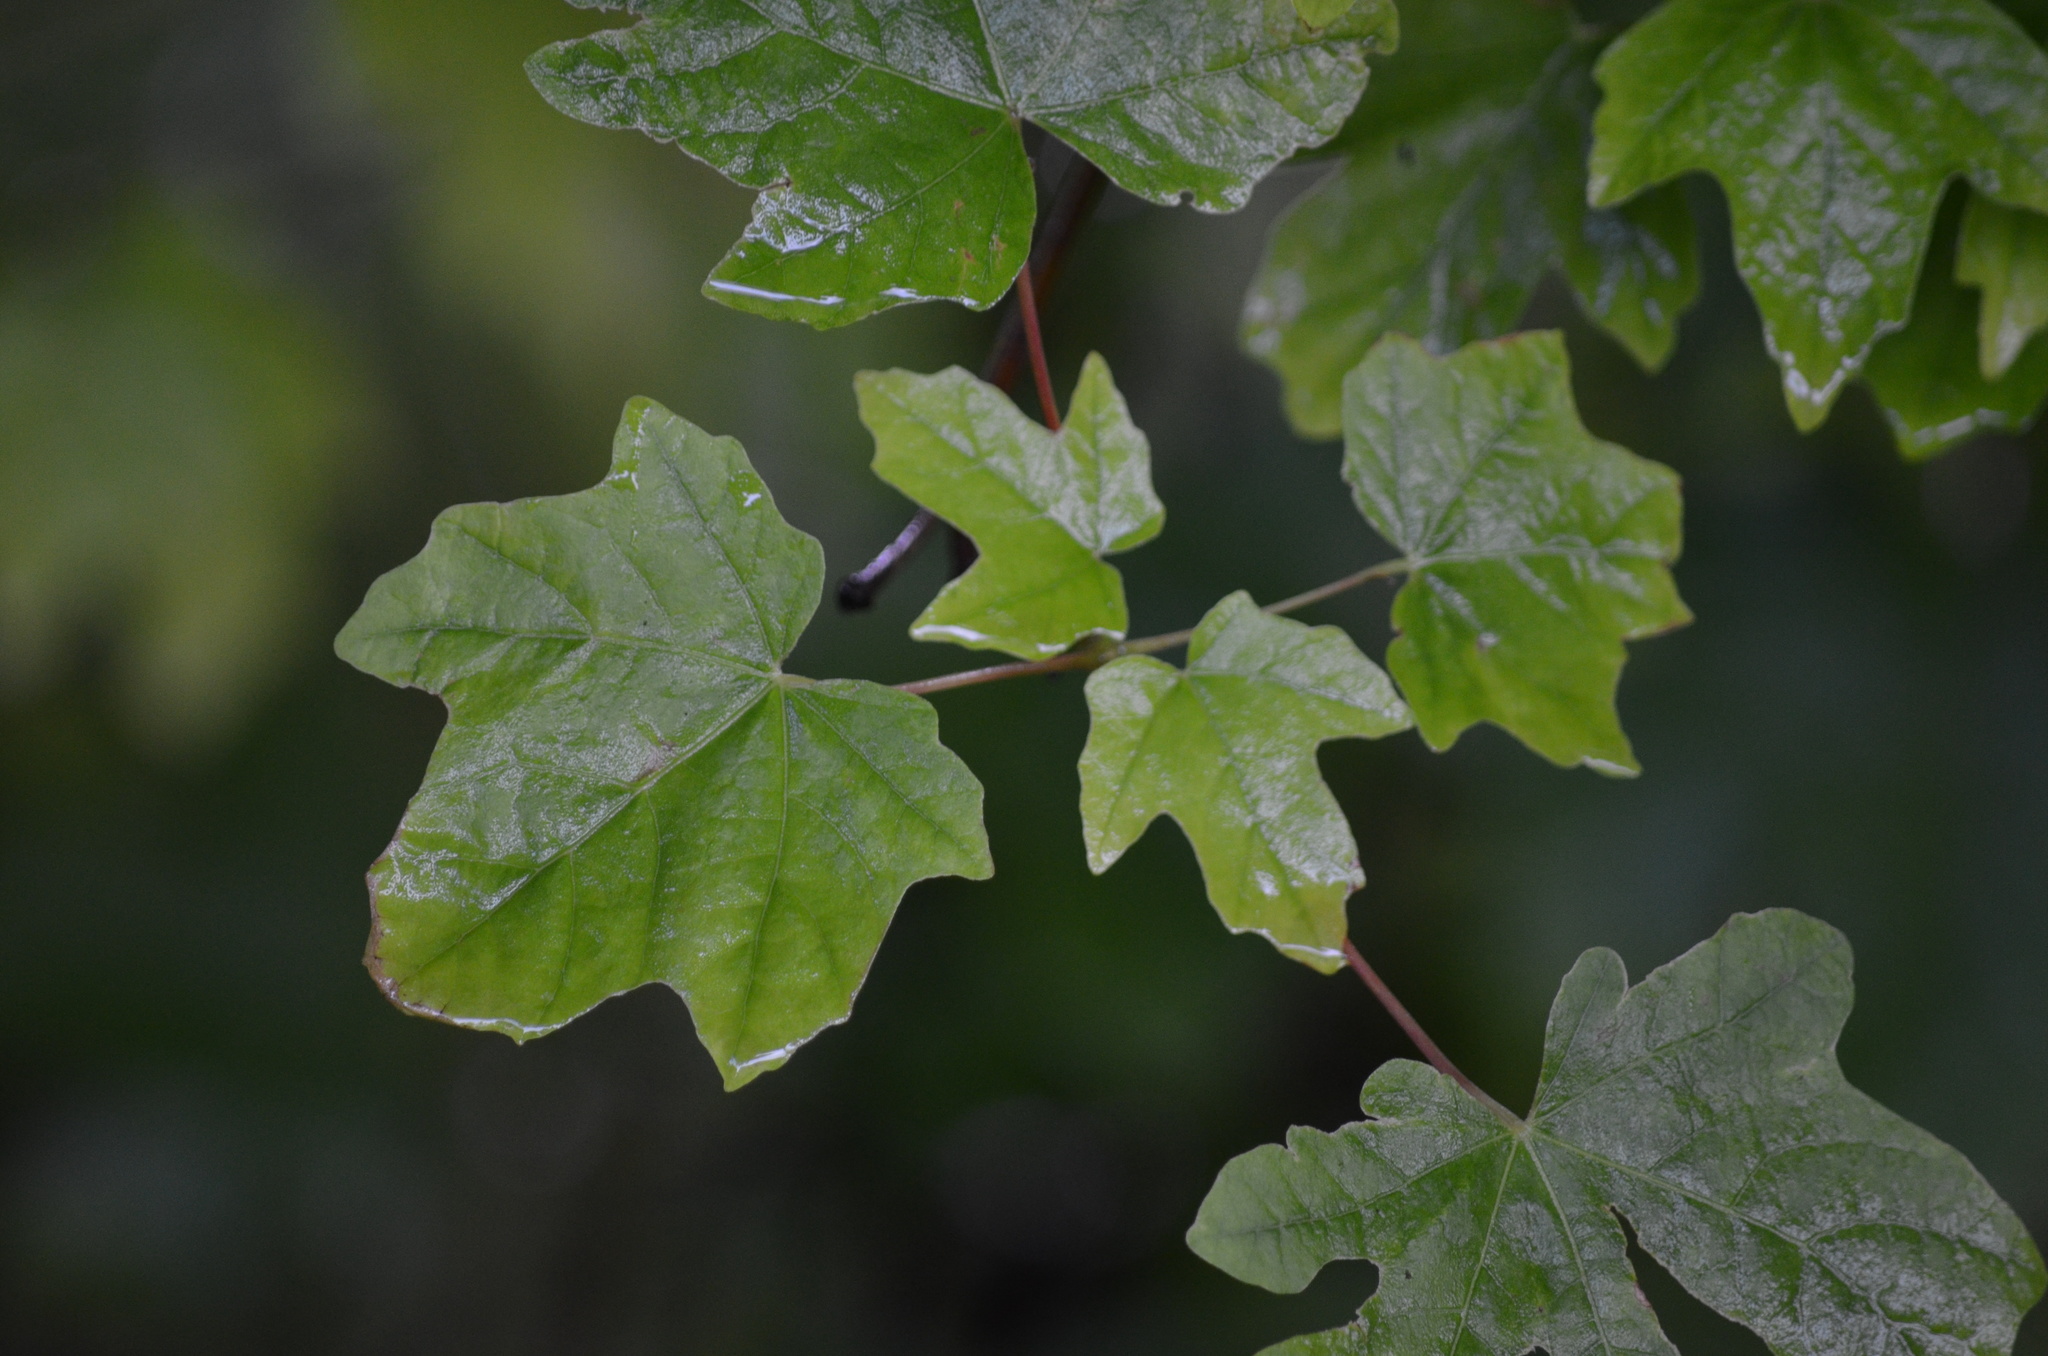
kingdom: Plantae
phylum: Tracheophyta
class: Magnoliopsida
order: Sapindales
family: Sapindaceae
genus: Acer
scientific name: Acer macrophyllum
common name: Oregon maple
